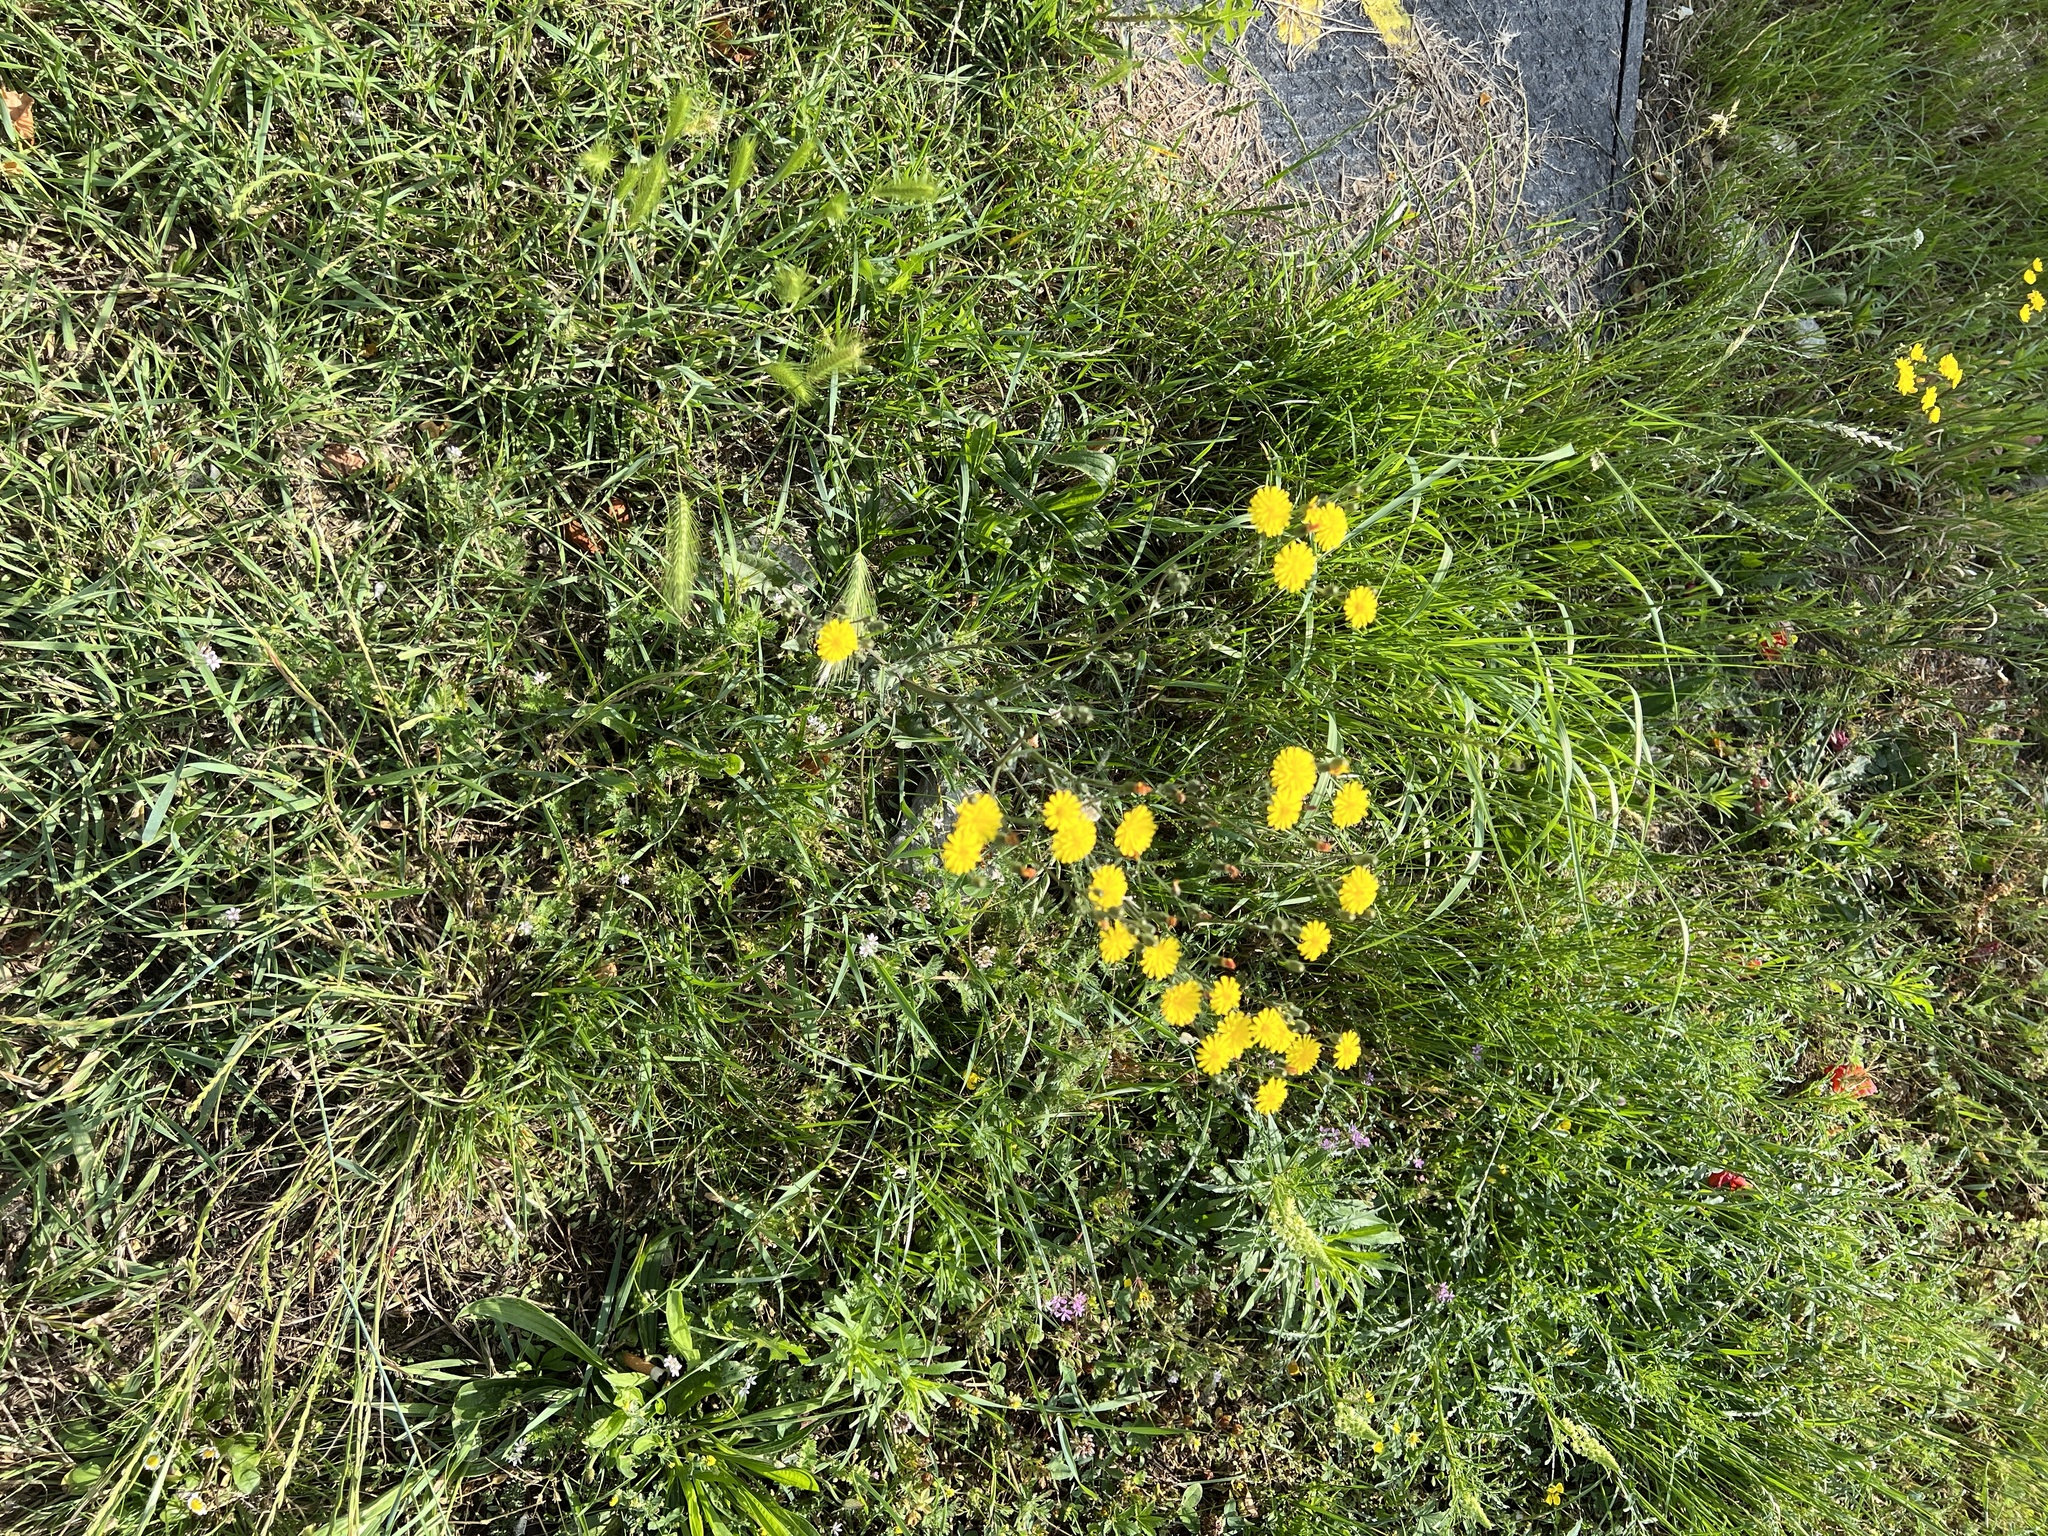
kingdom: Plantae
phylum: Tracheophyta
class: Magnoliopsida
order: Asterales
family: Asteraceae
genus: Hypochaeris
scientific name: Hypochaeris radicata
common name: Flatweed
